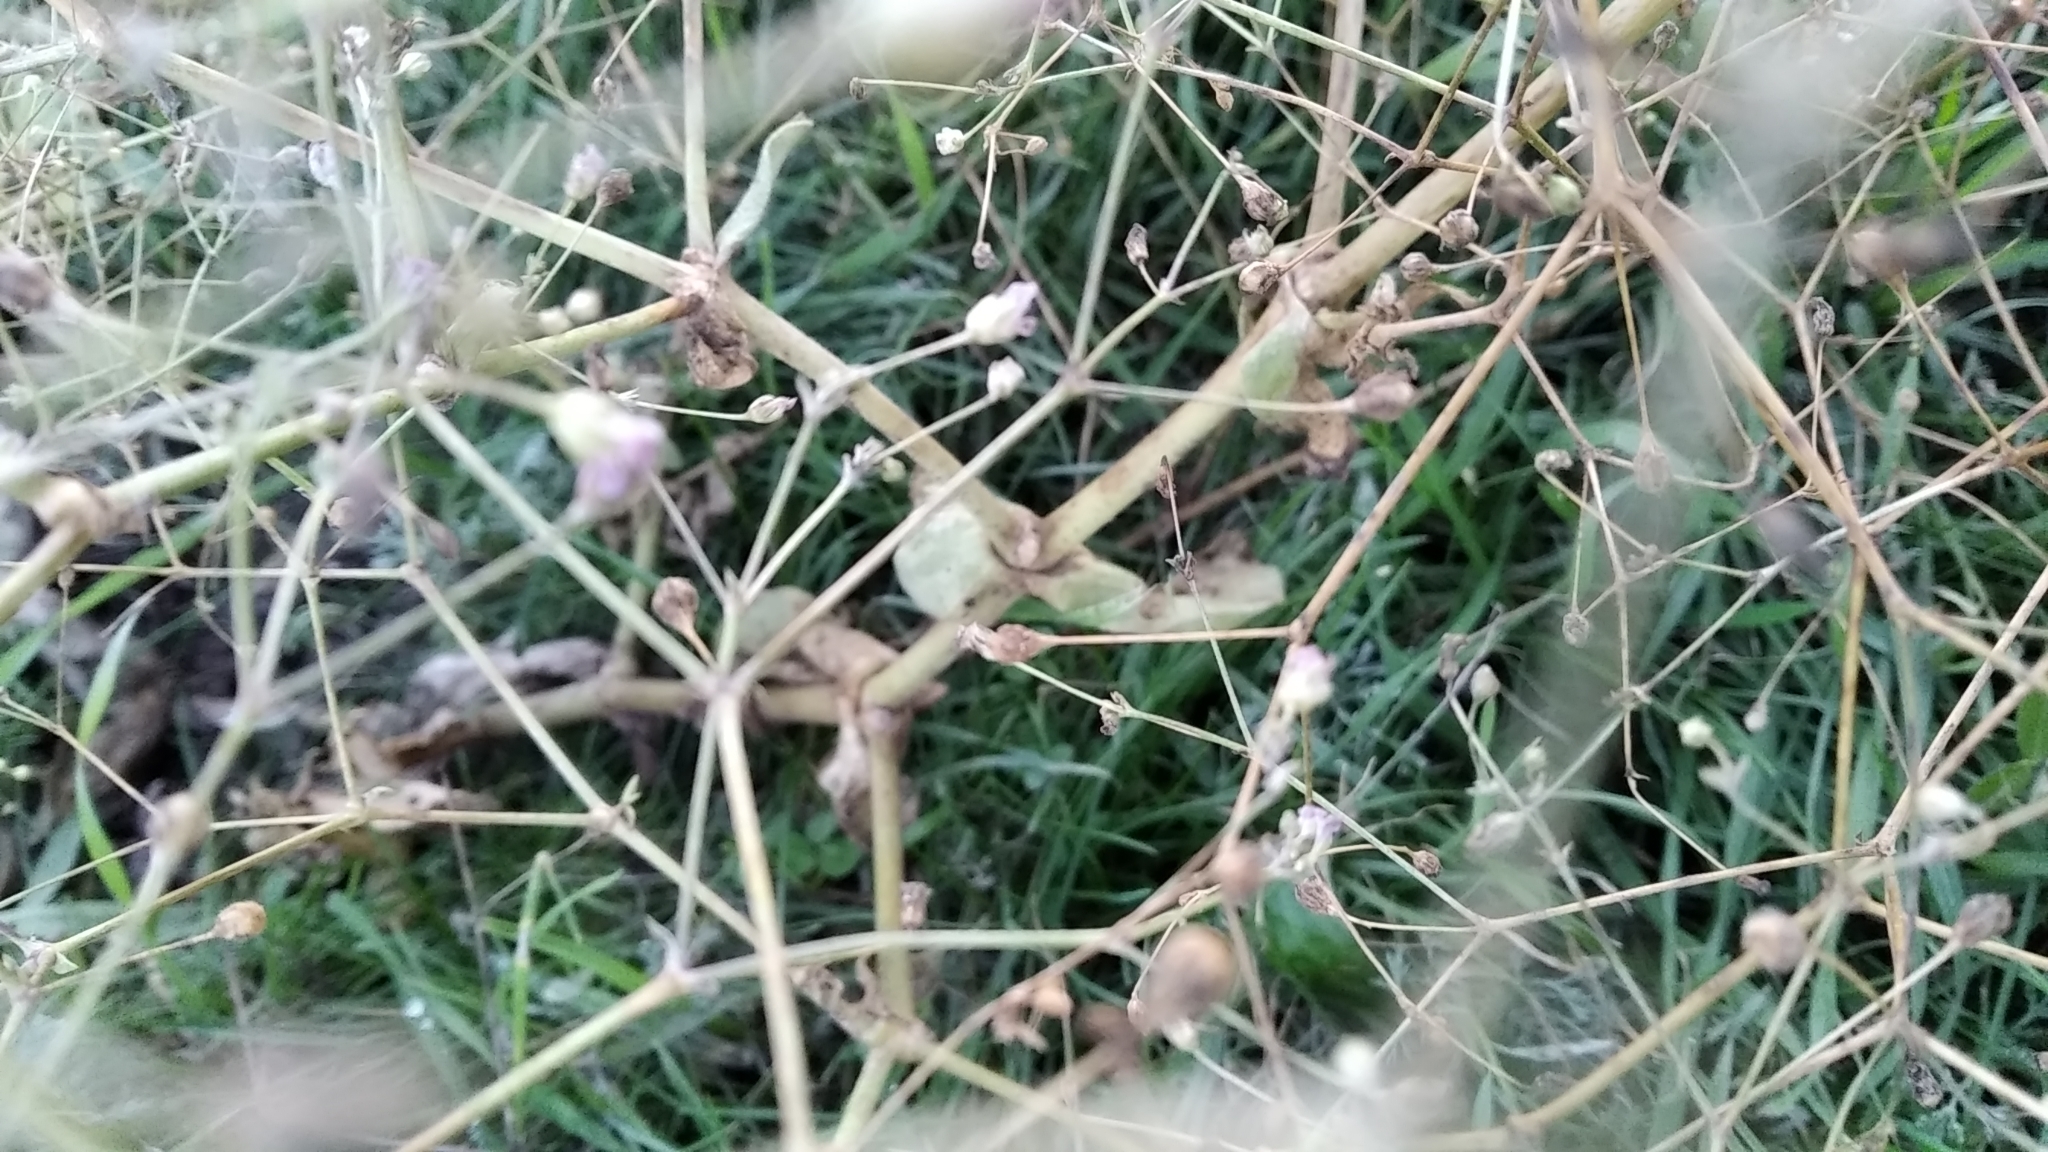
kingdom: Plantae
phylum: Tracheophyta
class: Magnoliopsida
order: Caryophyllales
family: Caryophyllaceae
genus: Gypsophila
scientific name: Gypsophila perfoliata
